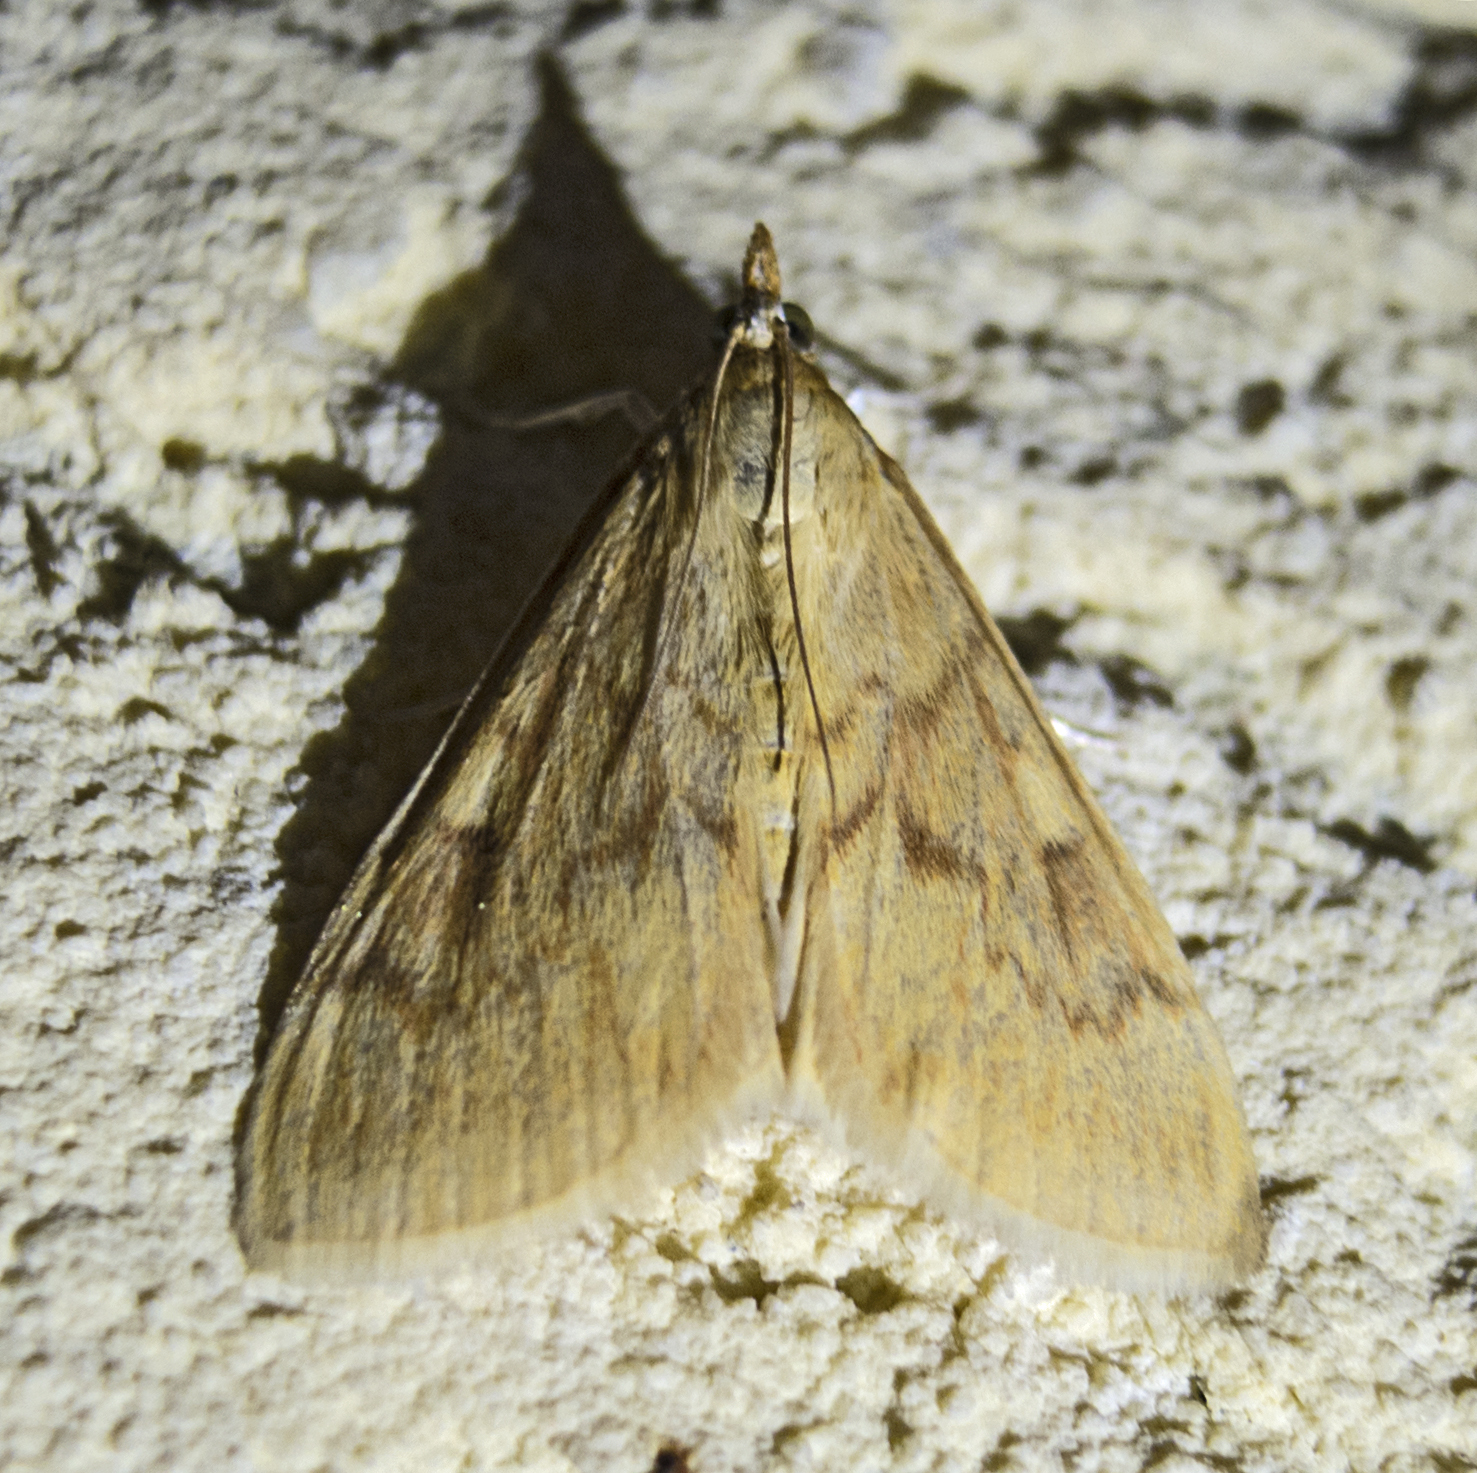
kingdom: Animalia
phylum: Arthropoda
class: Insecta
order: Lepidoptera
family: Crambidae
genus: Ostrinia
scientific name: Ostrinia nubilalis
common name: European corn borer
